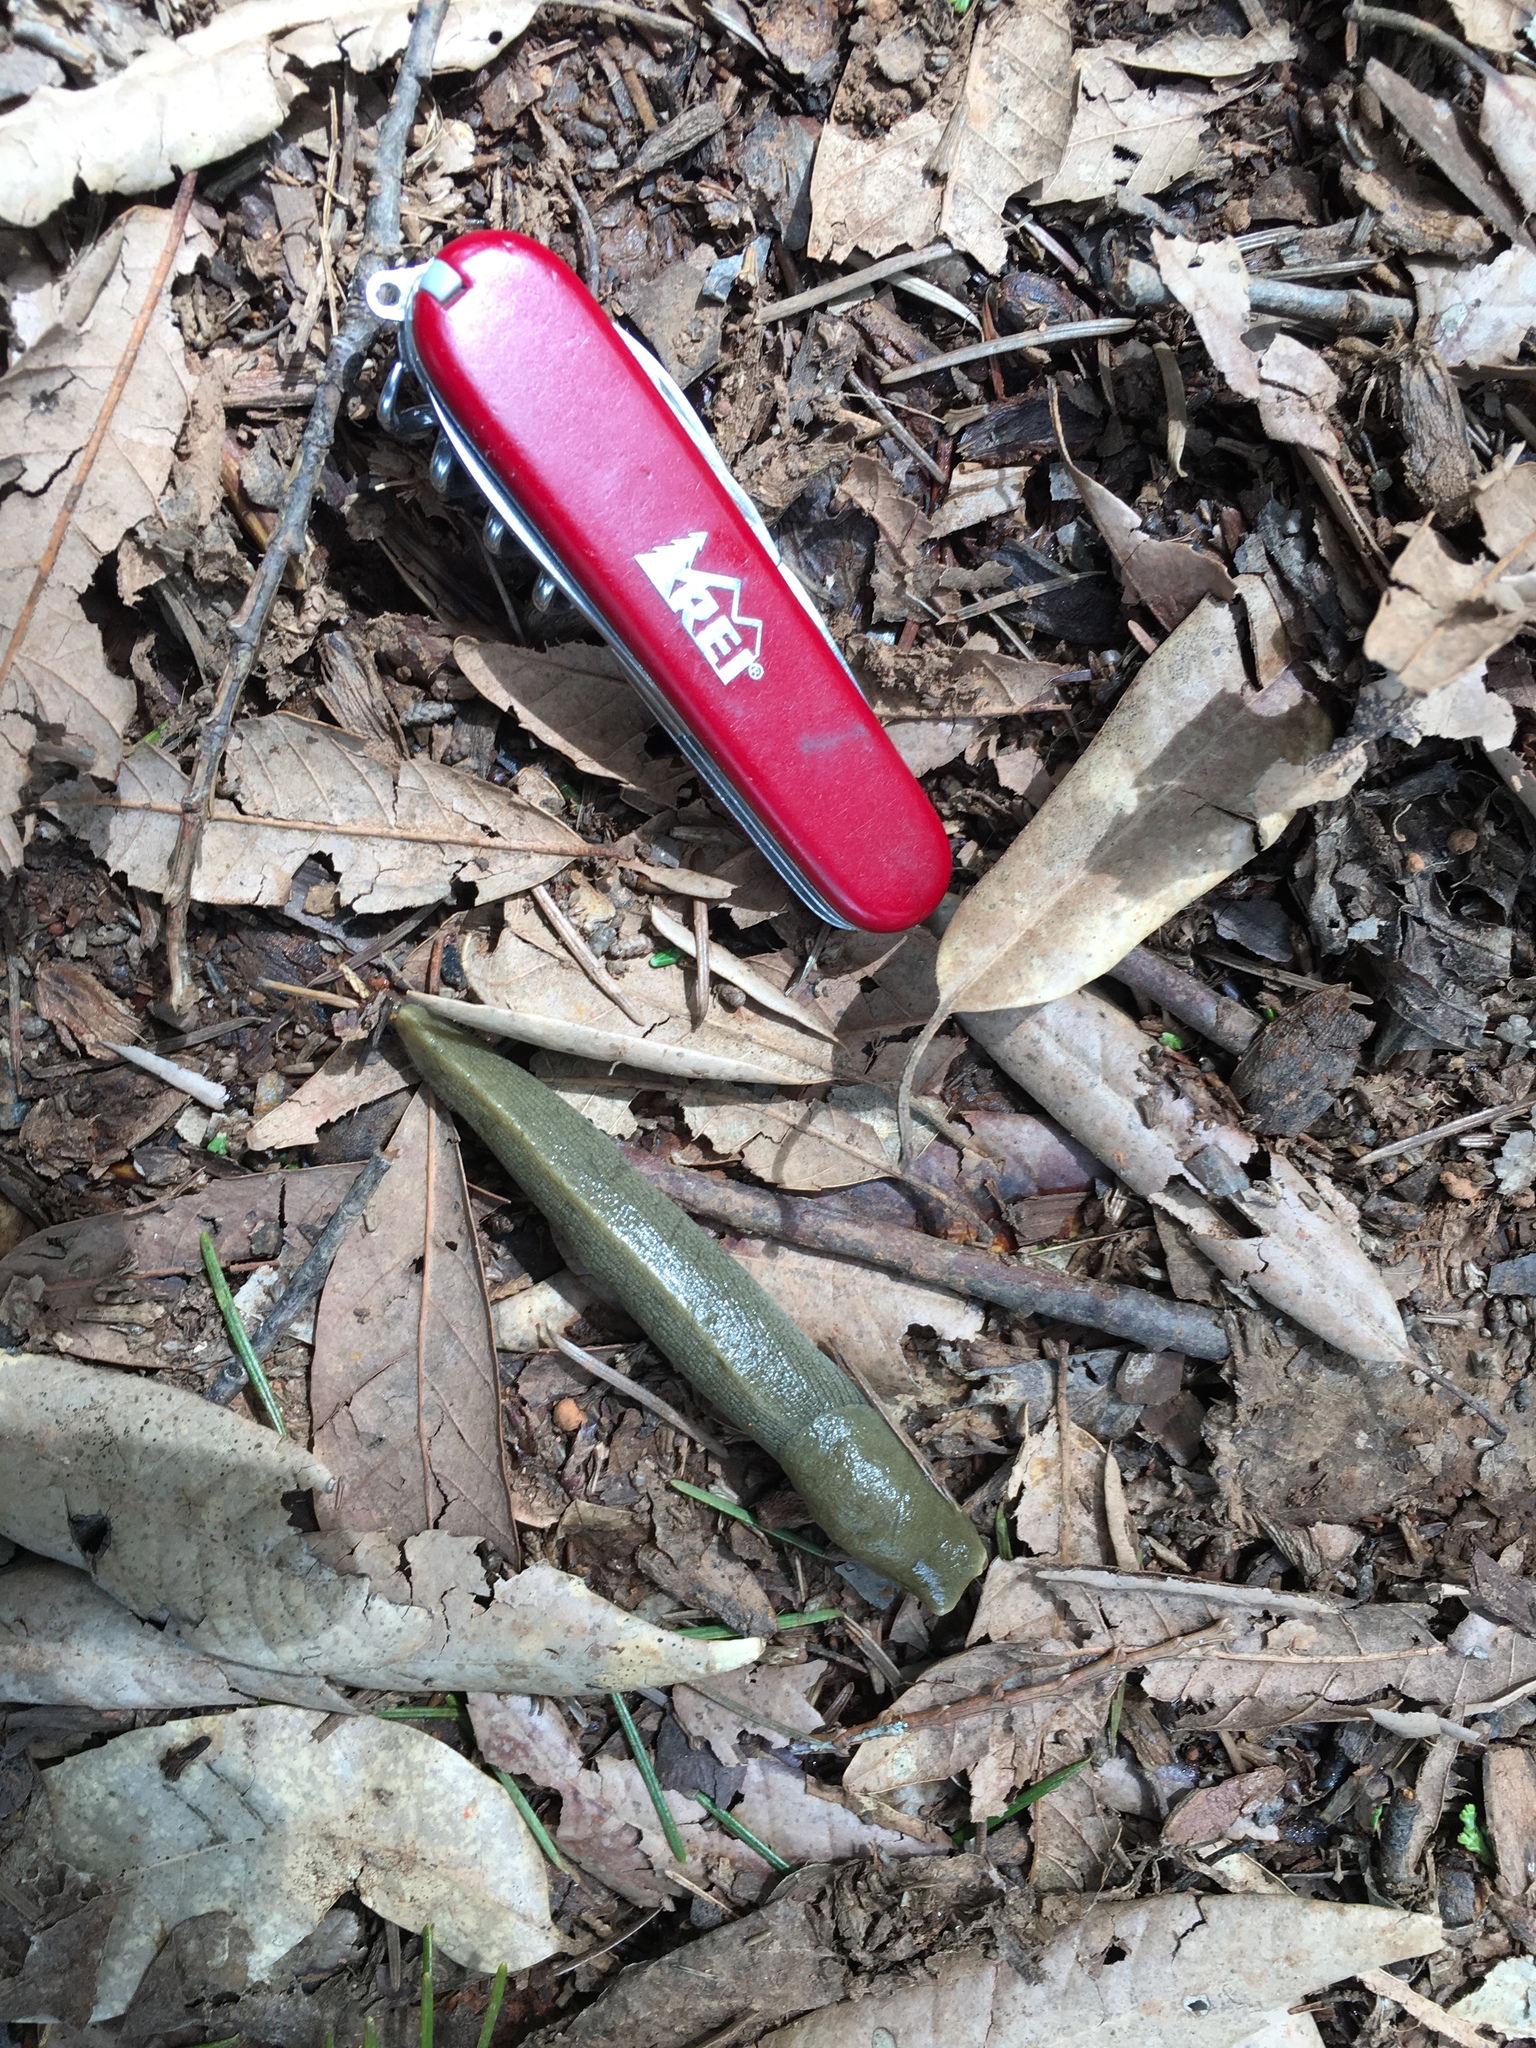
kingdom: Animalia
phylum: Mollusca
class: Gastropoda
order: Stylommatophora
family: Ariolimacidae
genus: Ariolimax
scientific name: Ariolimax buttoni
